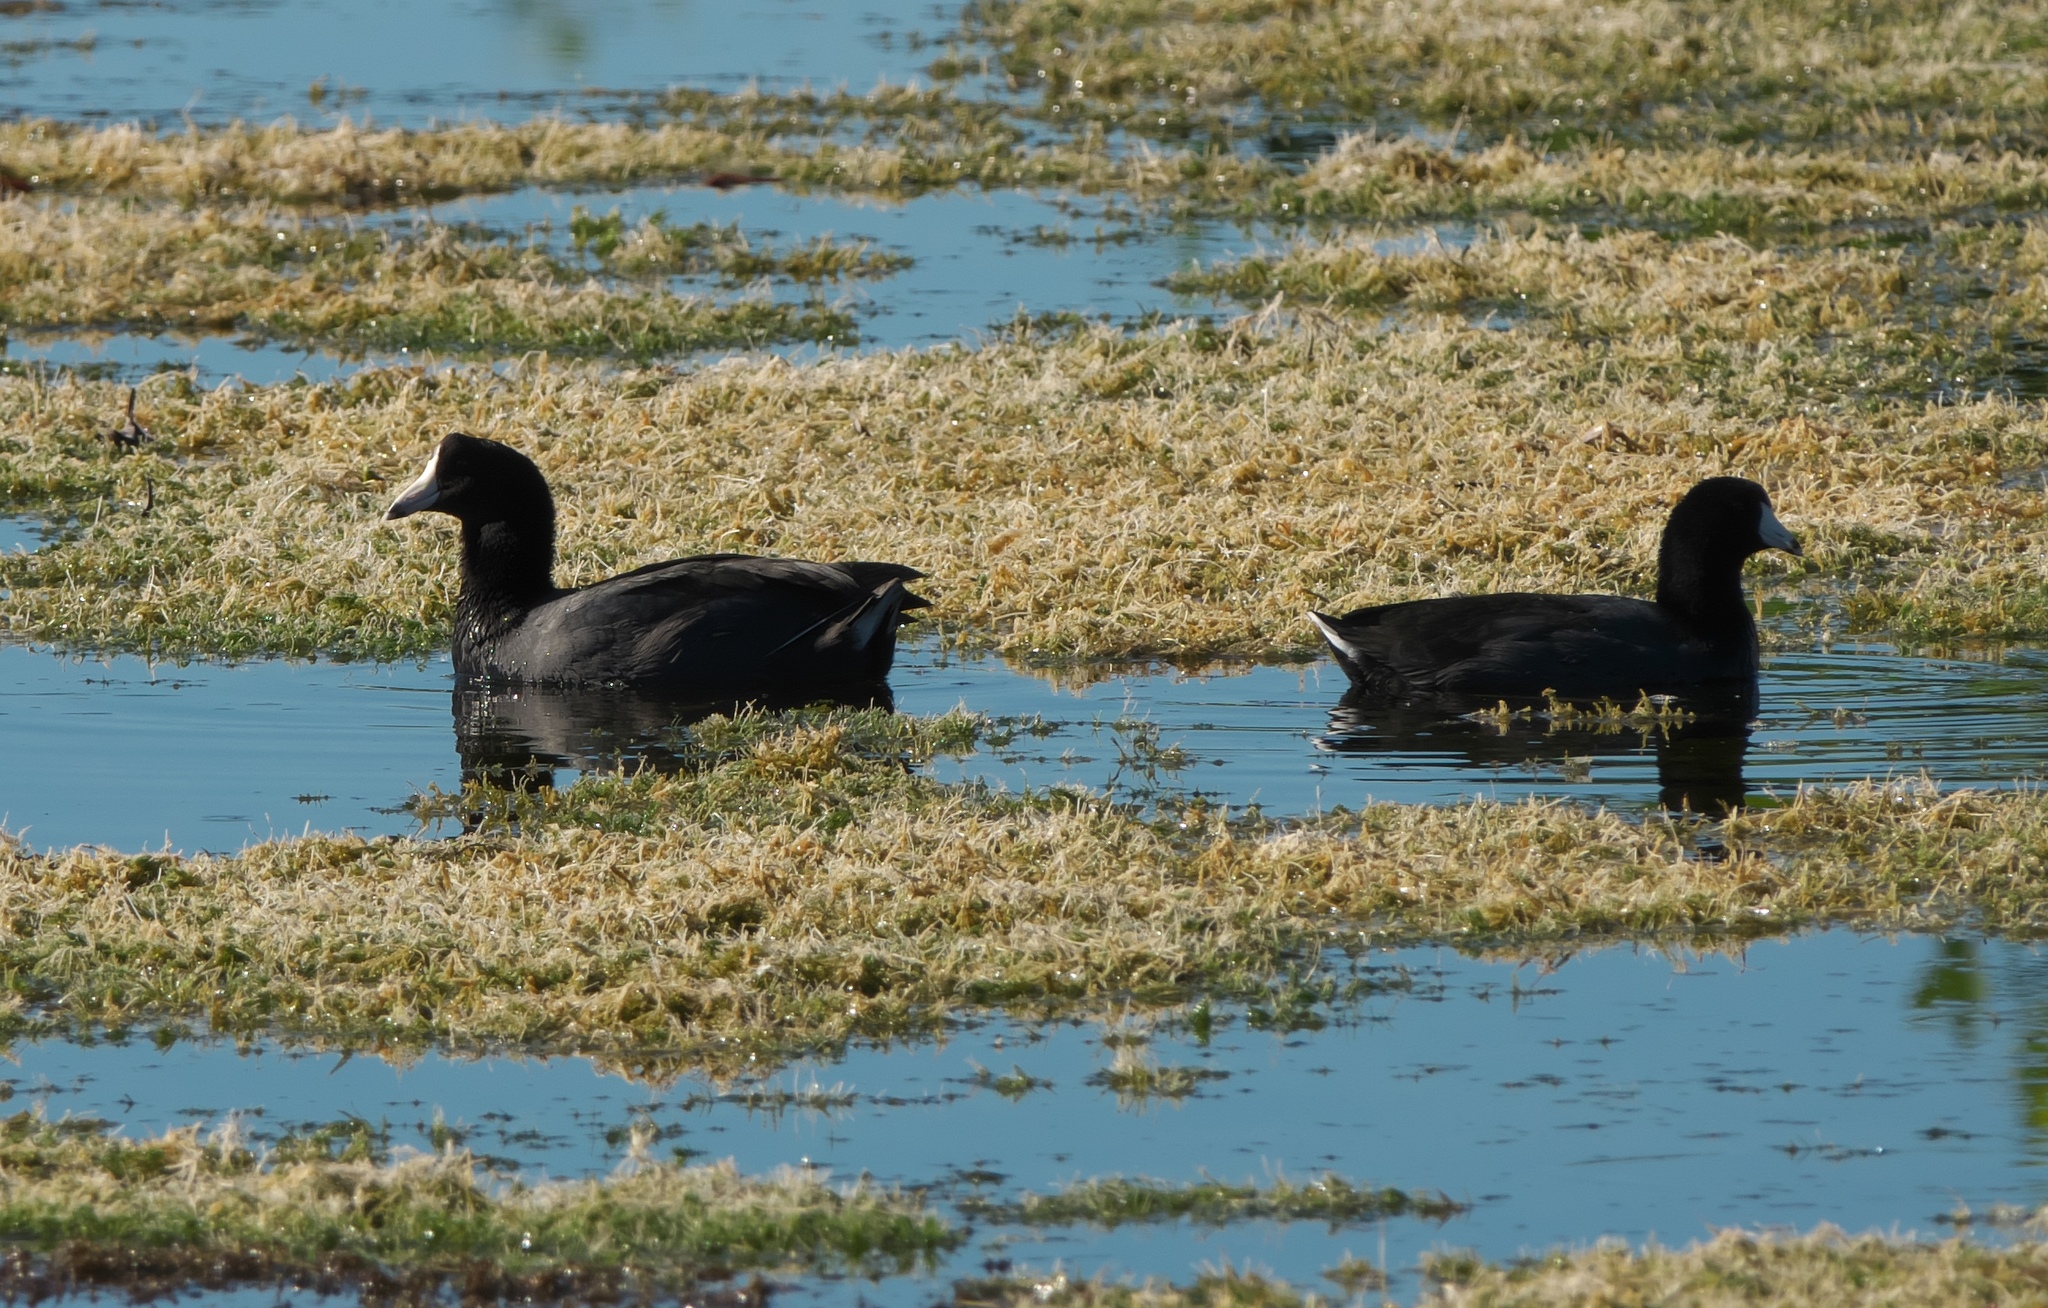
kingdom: Animalia
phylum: Chordata
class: Aves
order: Gruiformes
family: Rallidae
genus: Fulica
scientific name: Fulica americana
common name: American coot
